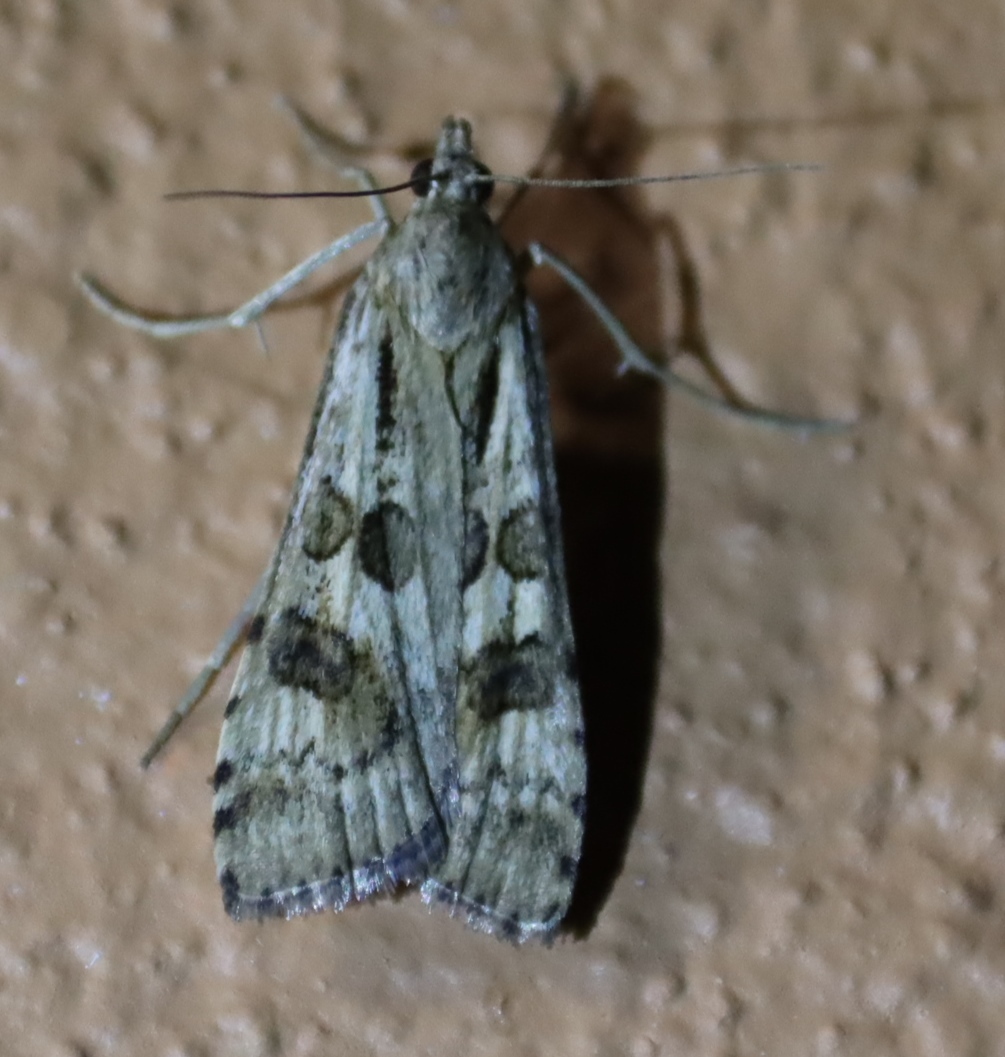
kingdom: Animalia
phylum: Arthropoda
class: Insecta
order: Lepidoptera
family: Crambidae
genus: Nomophila
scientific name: Nomophila noctuella
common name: Rush veneer
